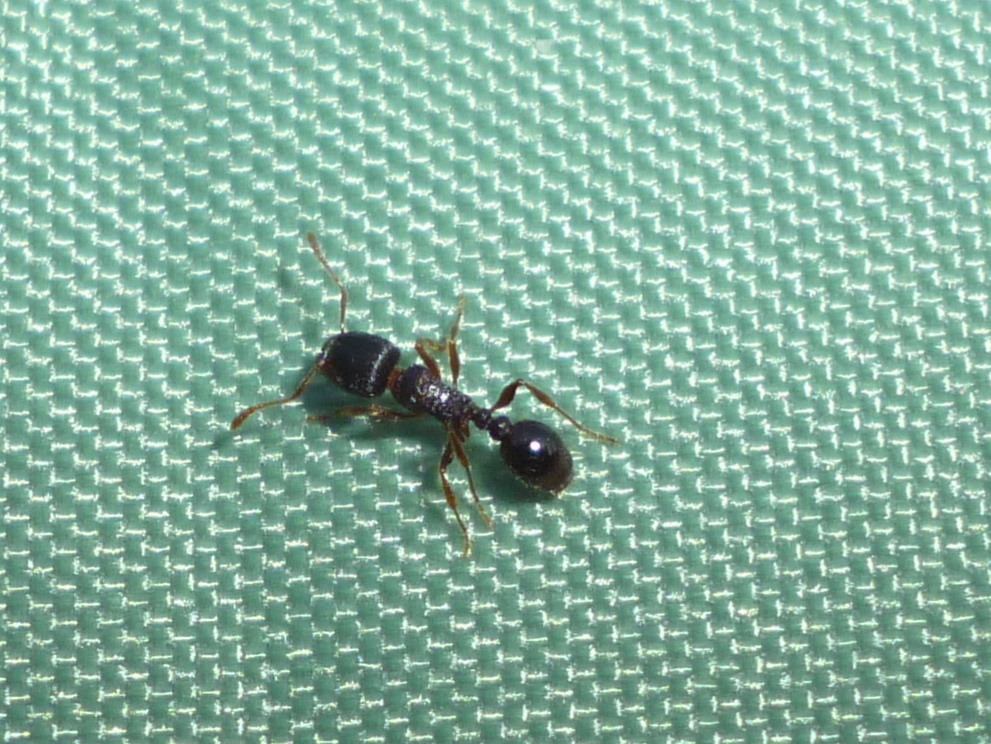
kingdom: Animalia
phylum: Arthropoda
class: Insecta
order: Hymenoptera
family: Formicidae
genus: Tetramorium
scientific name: Tetramorium immigrans
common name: Pavement ant
